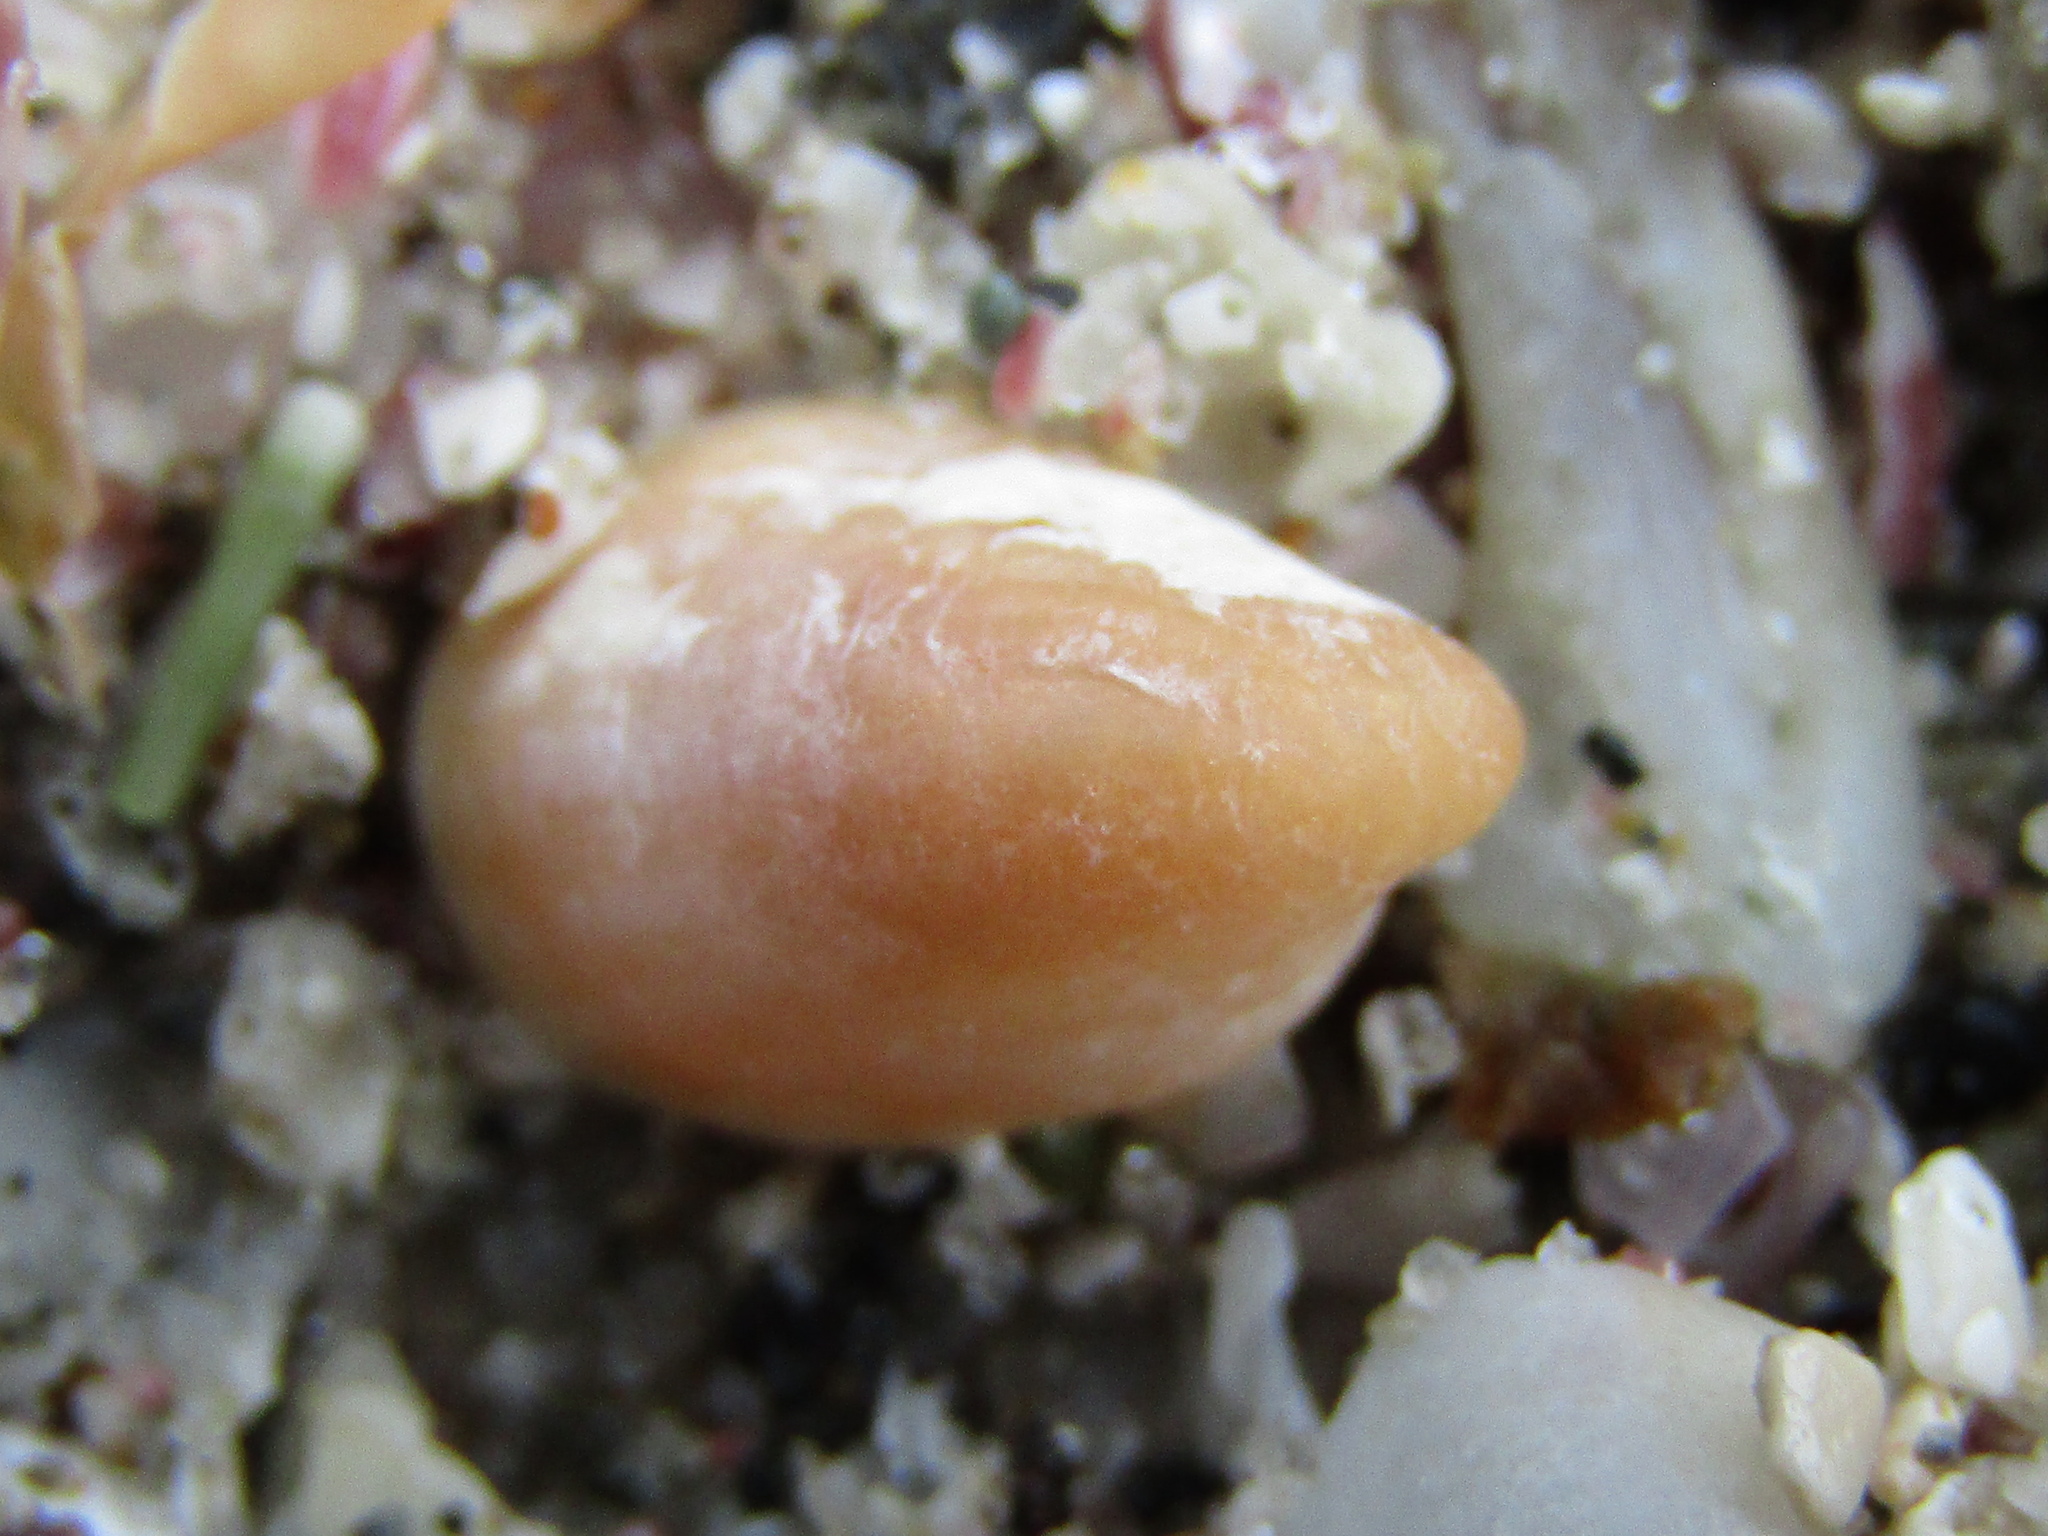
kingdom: Animalia
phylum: Mollusca
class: Gastropoda
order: Littorinimorpha
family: Calyptraeidae
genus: Maoricrypta
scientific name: Maoricrypta youngi
